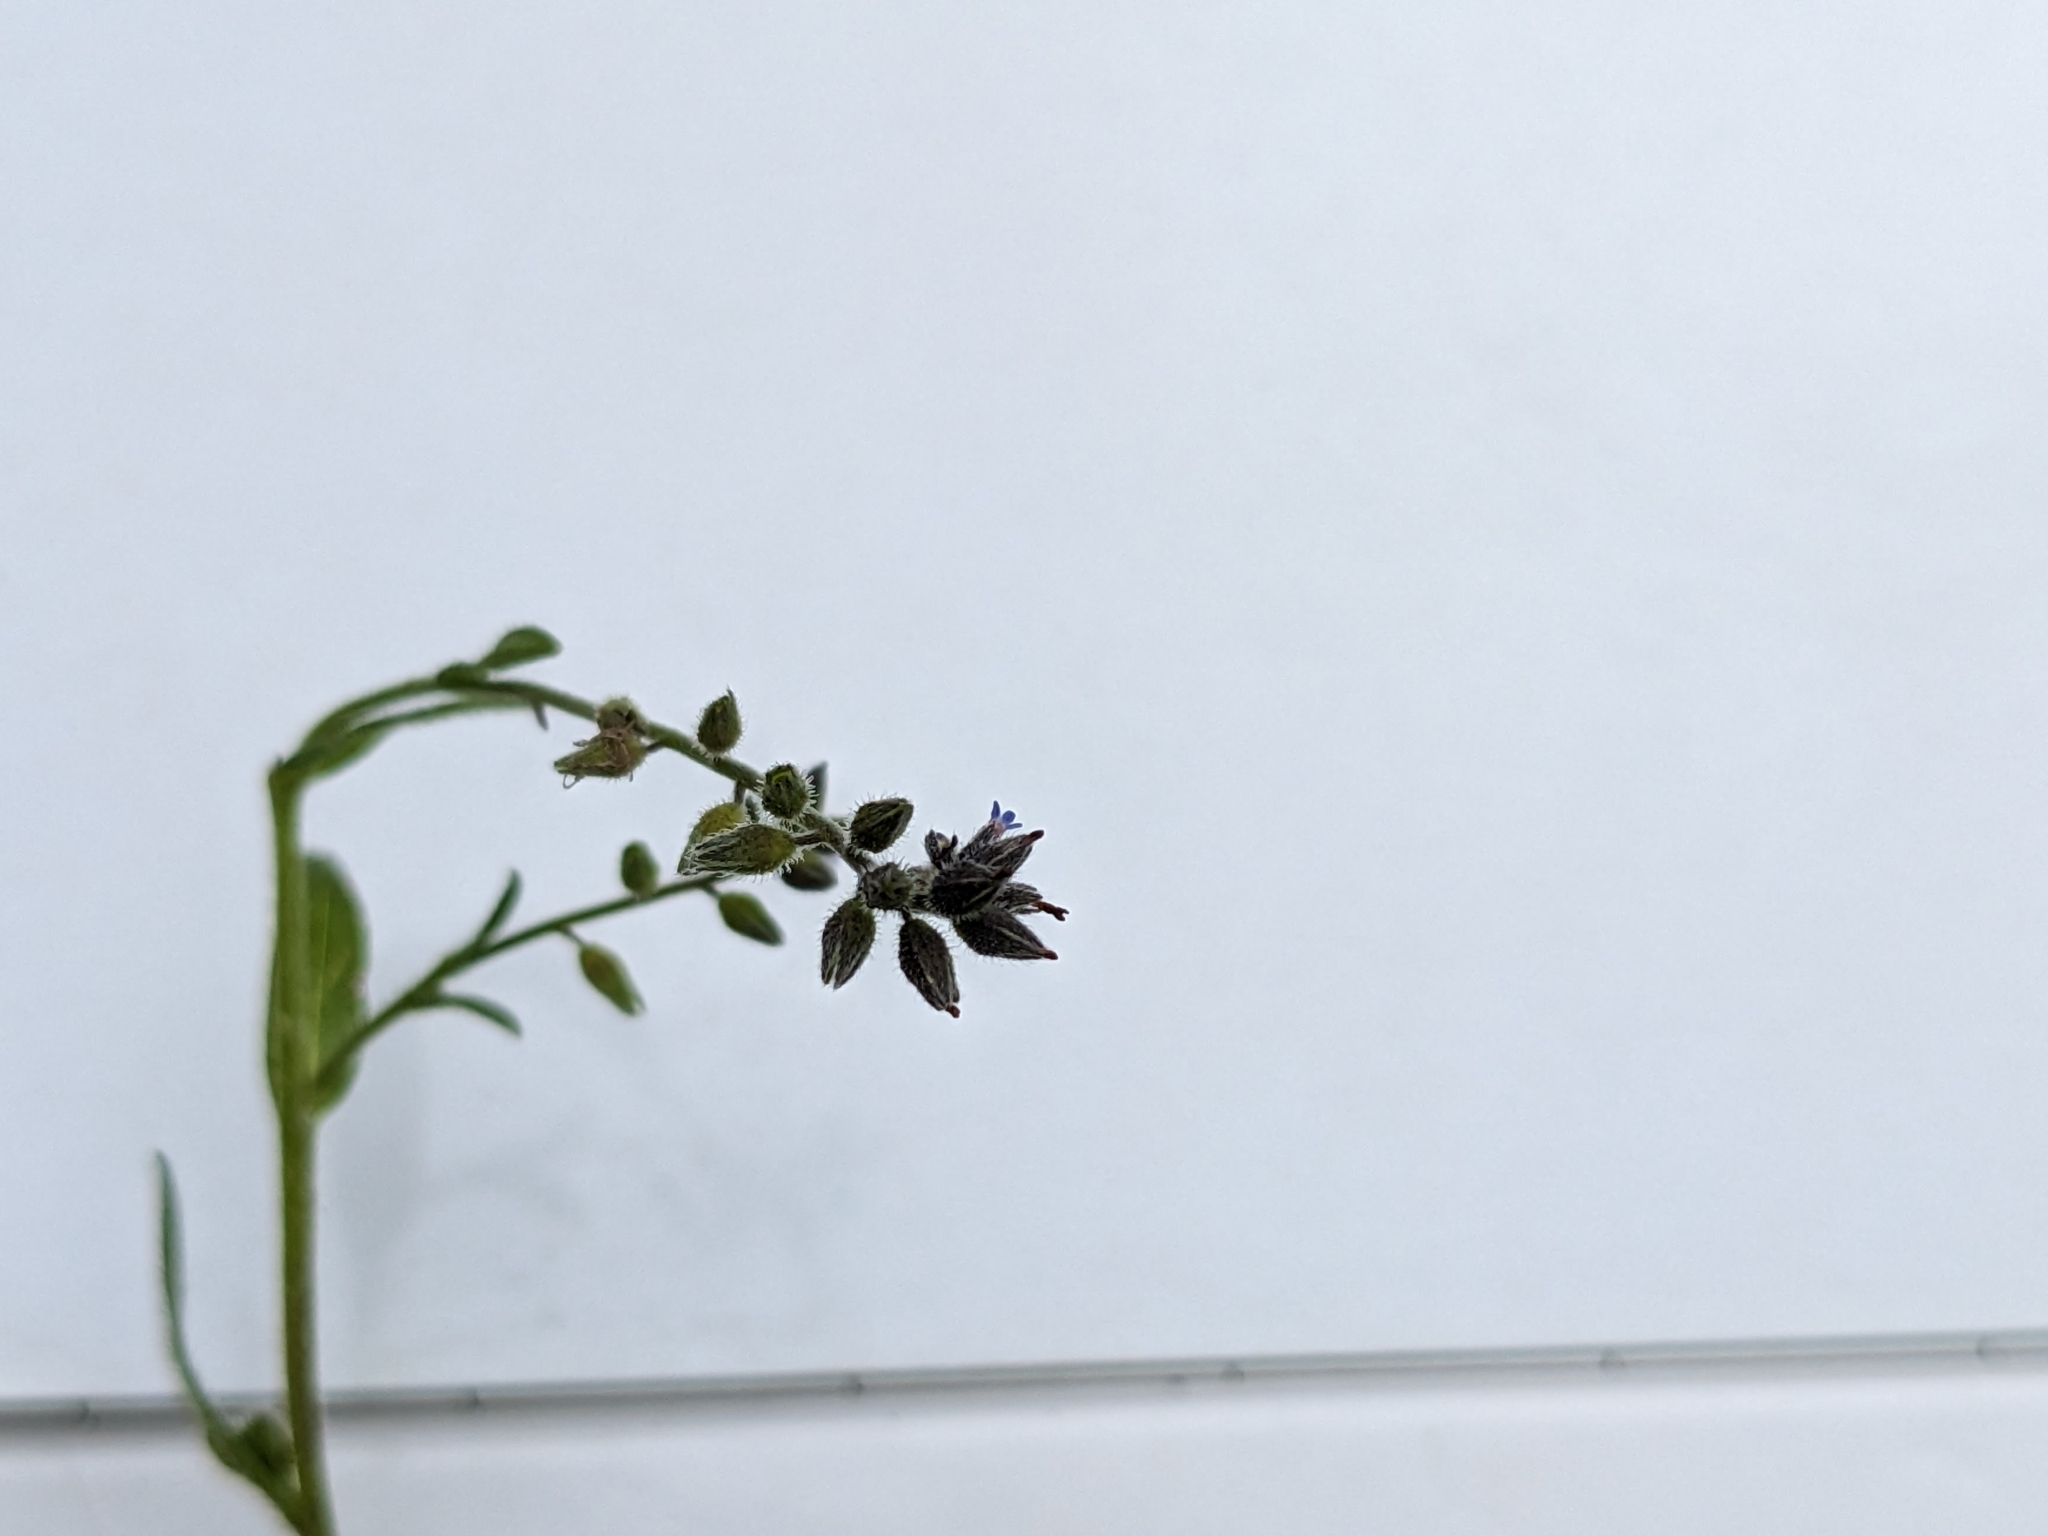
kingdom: Plantae
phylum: Tracheophyta
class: Magnoliopsida
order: Boraginales
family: Boraginaceae
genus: Myosotis
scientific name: Myosotis discolor
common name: Changing forget-me-not
